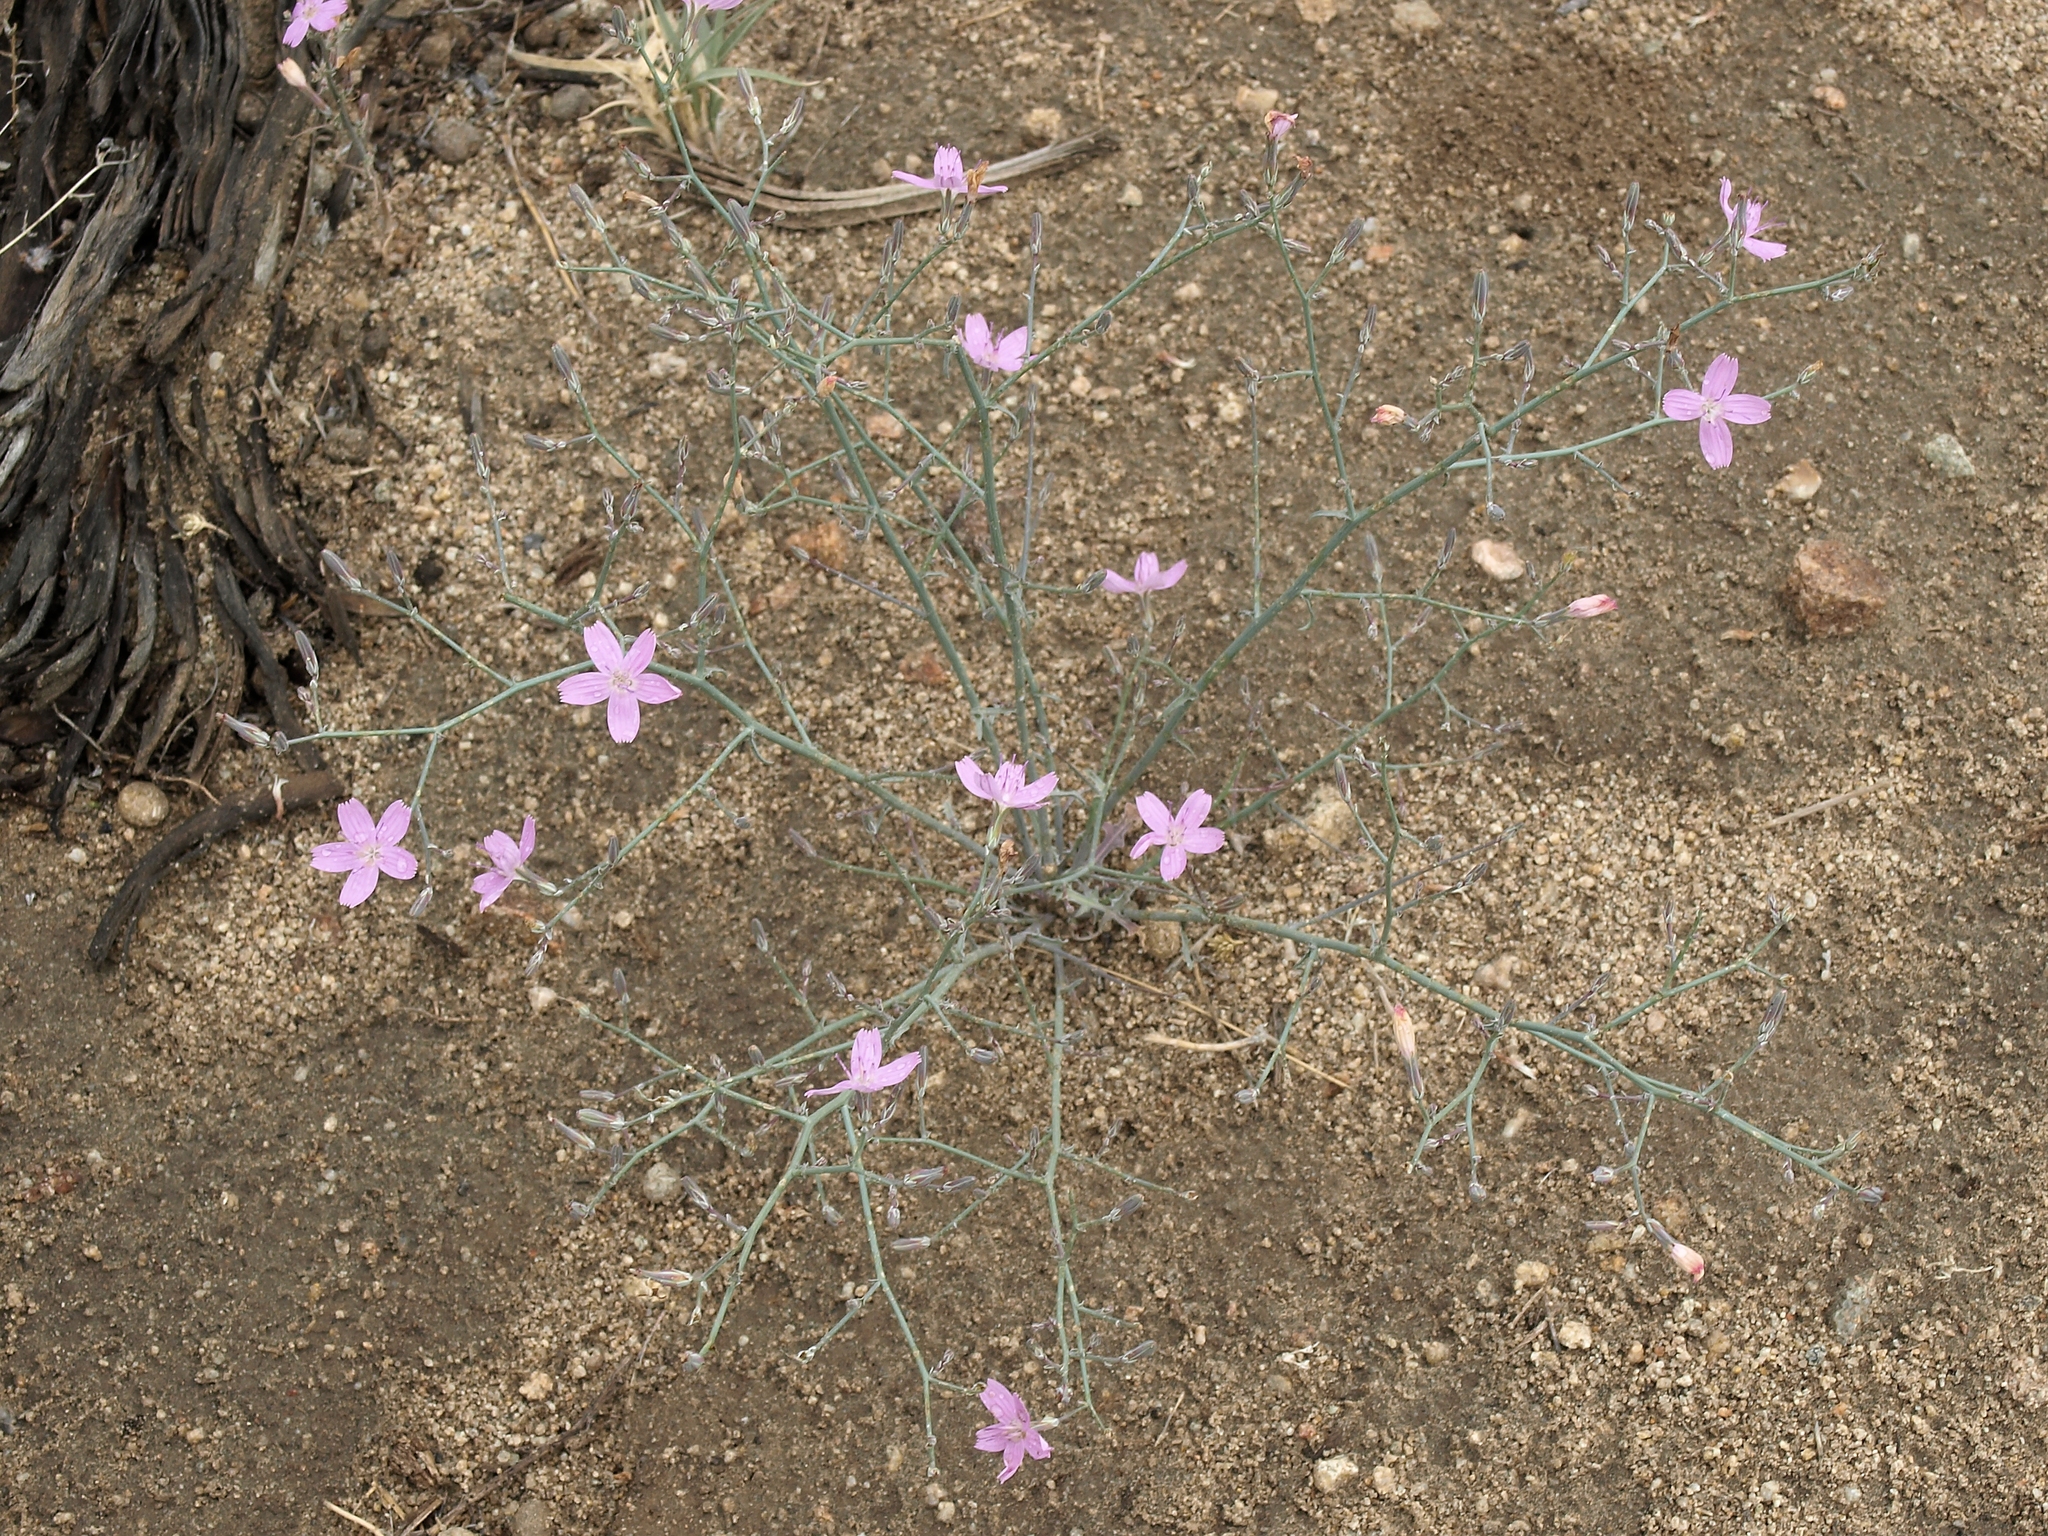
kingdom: Plantae
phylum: Tracheophyta
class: Magnoliopsida
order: Asterales
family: Asteraceae
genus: Stephanomeria
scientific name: Stephanomeria exigua
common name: Small wirelettuce
